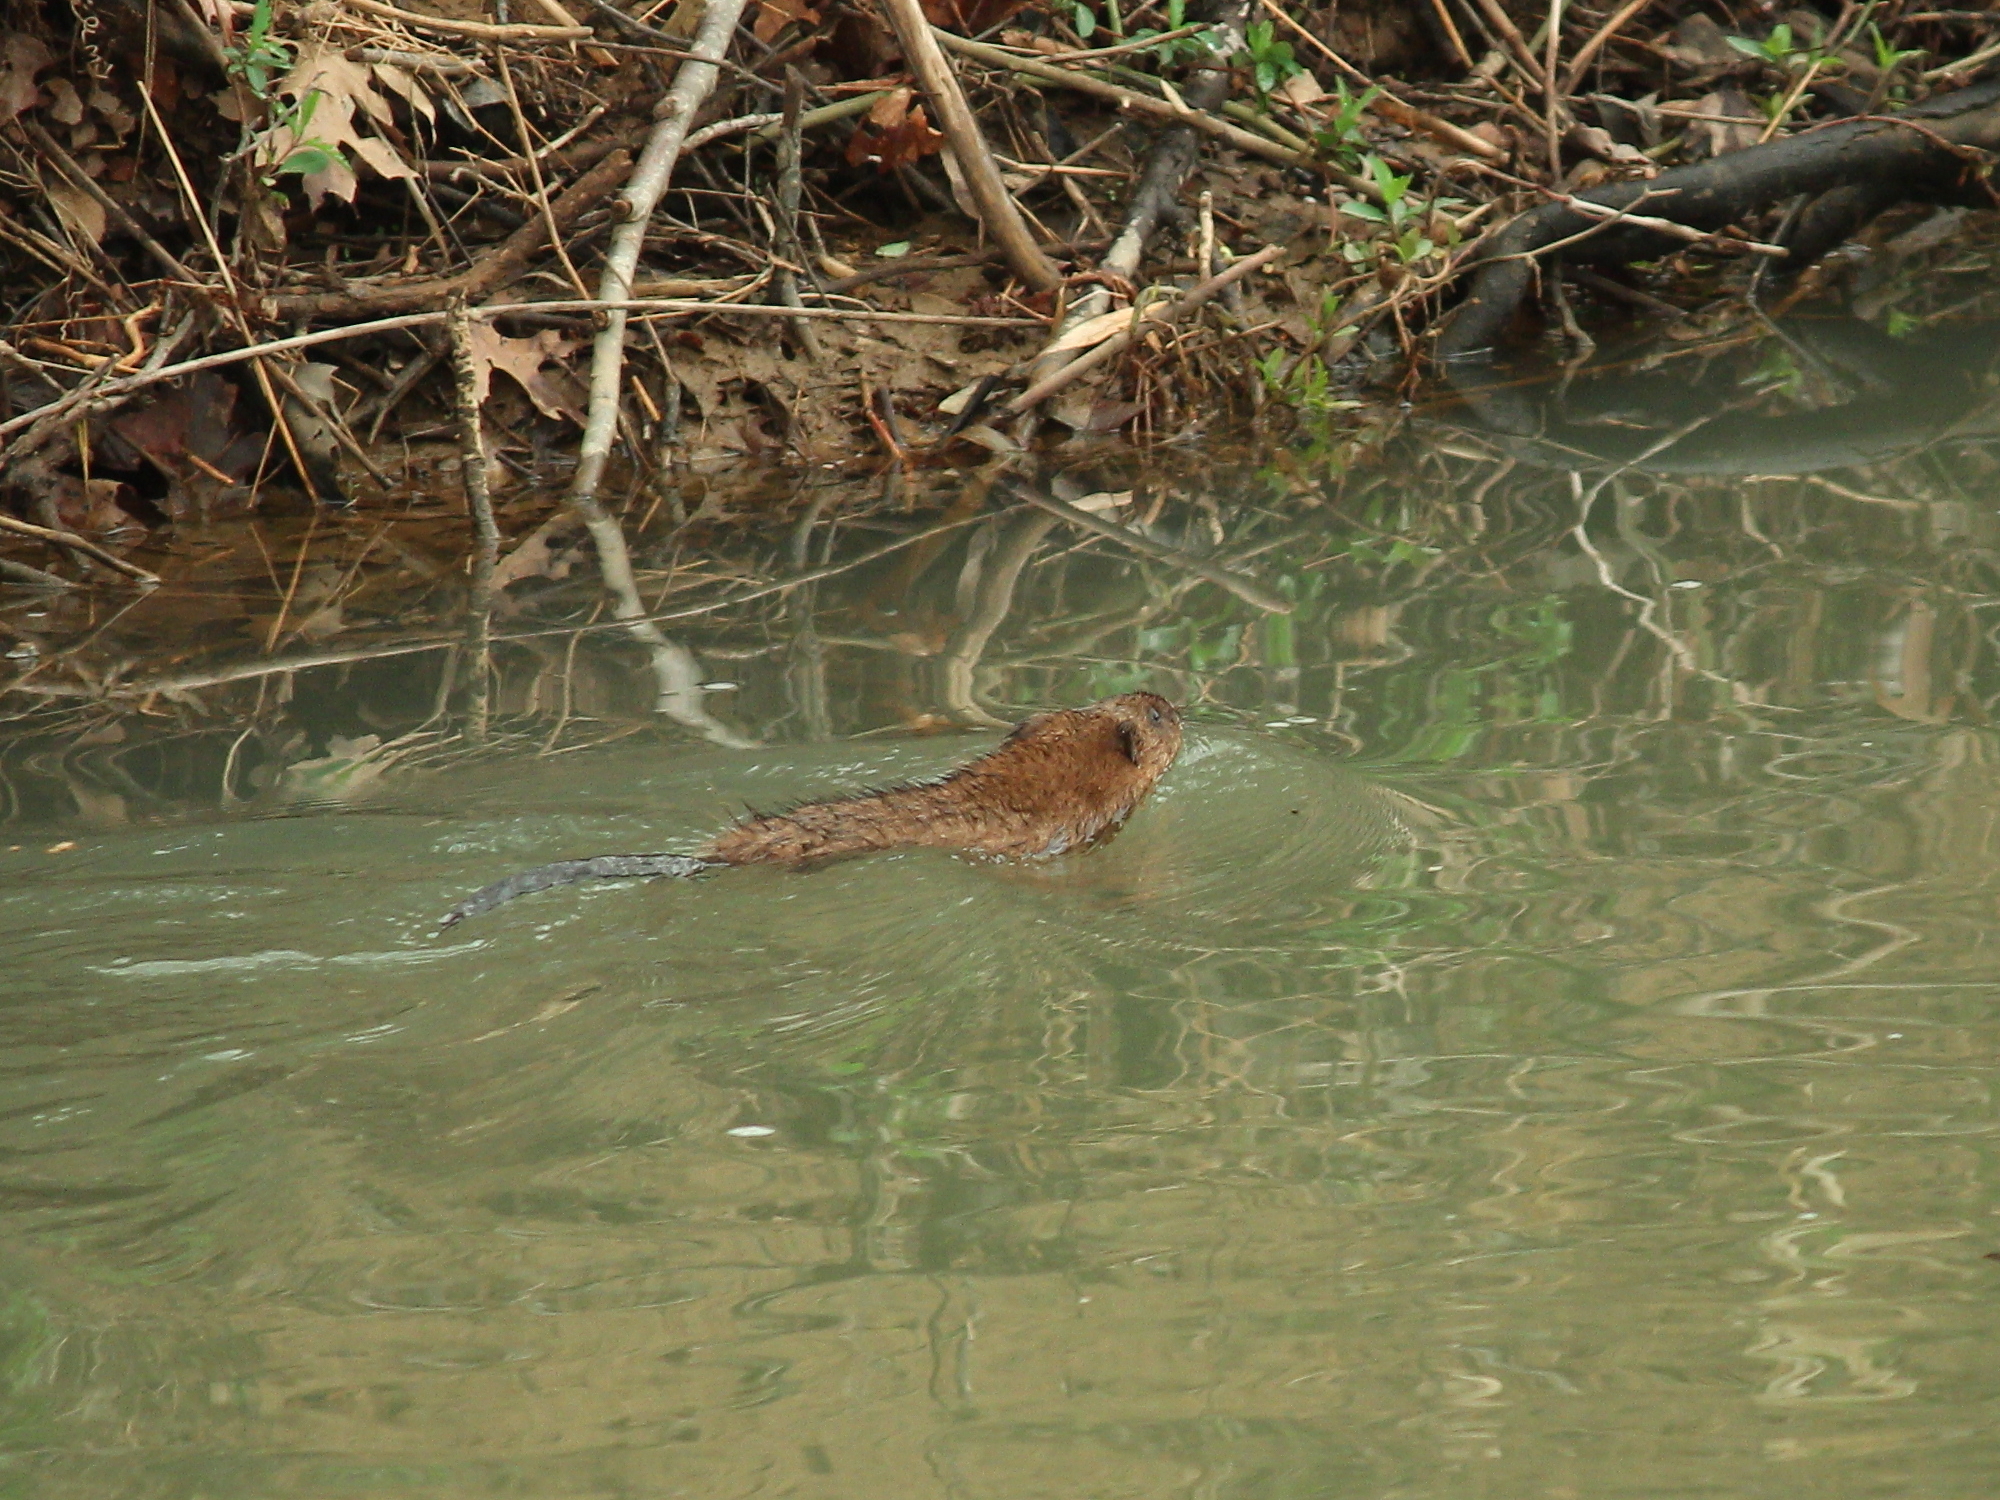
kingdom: Animalia
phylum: Chordata
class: Mammalia
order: Rodentia
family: Cricetidae
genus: Ondatra
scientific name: Ondatra zibethicus
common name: Muskrat
